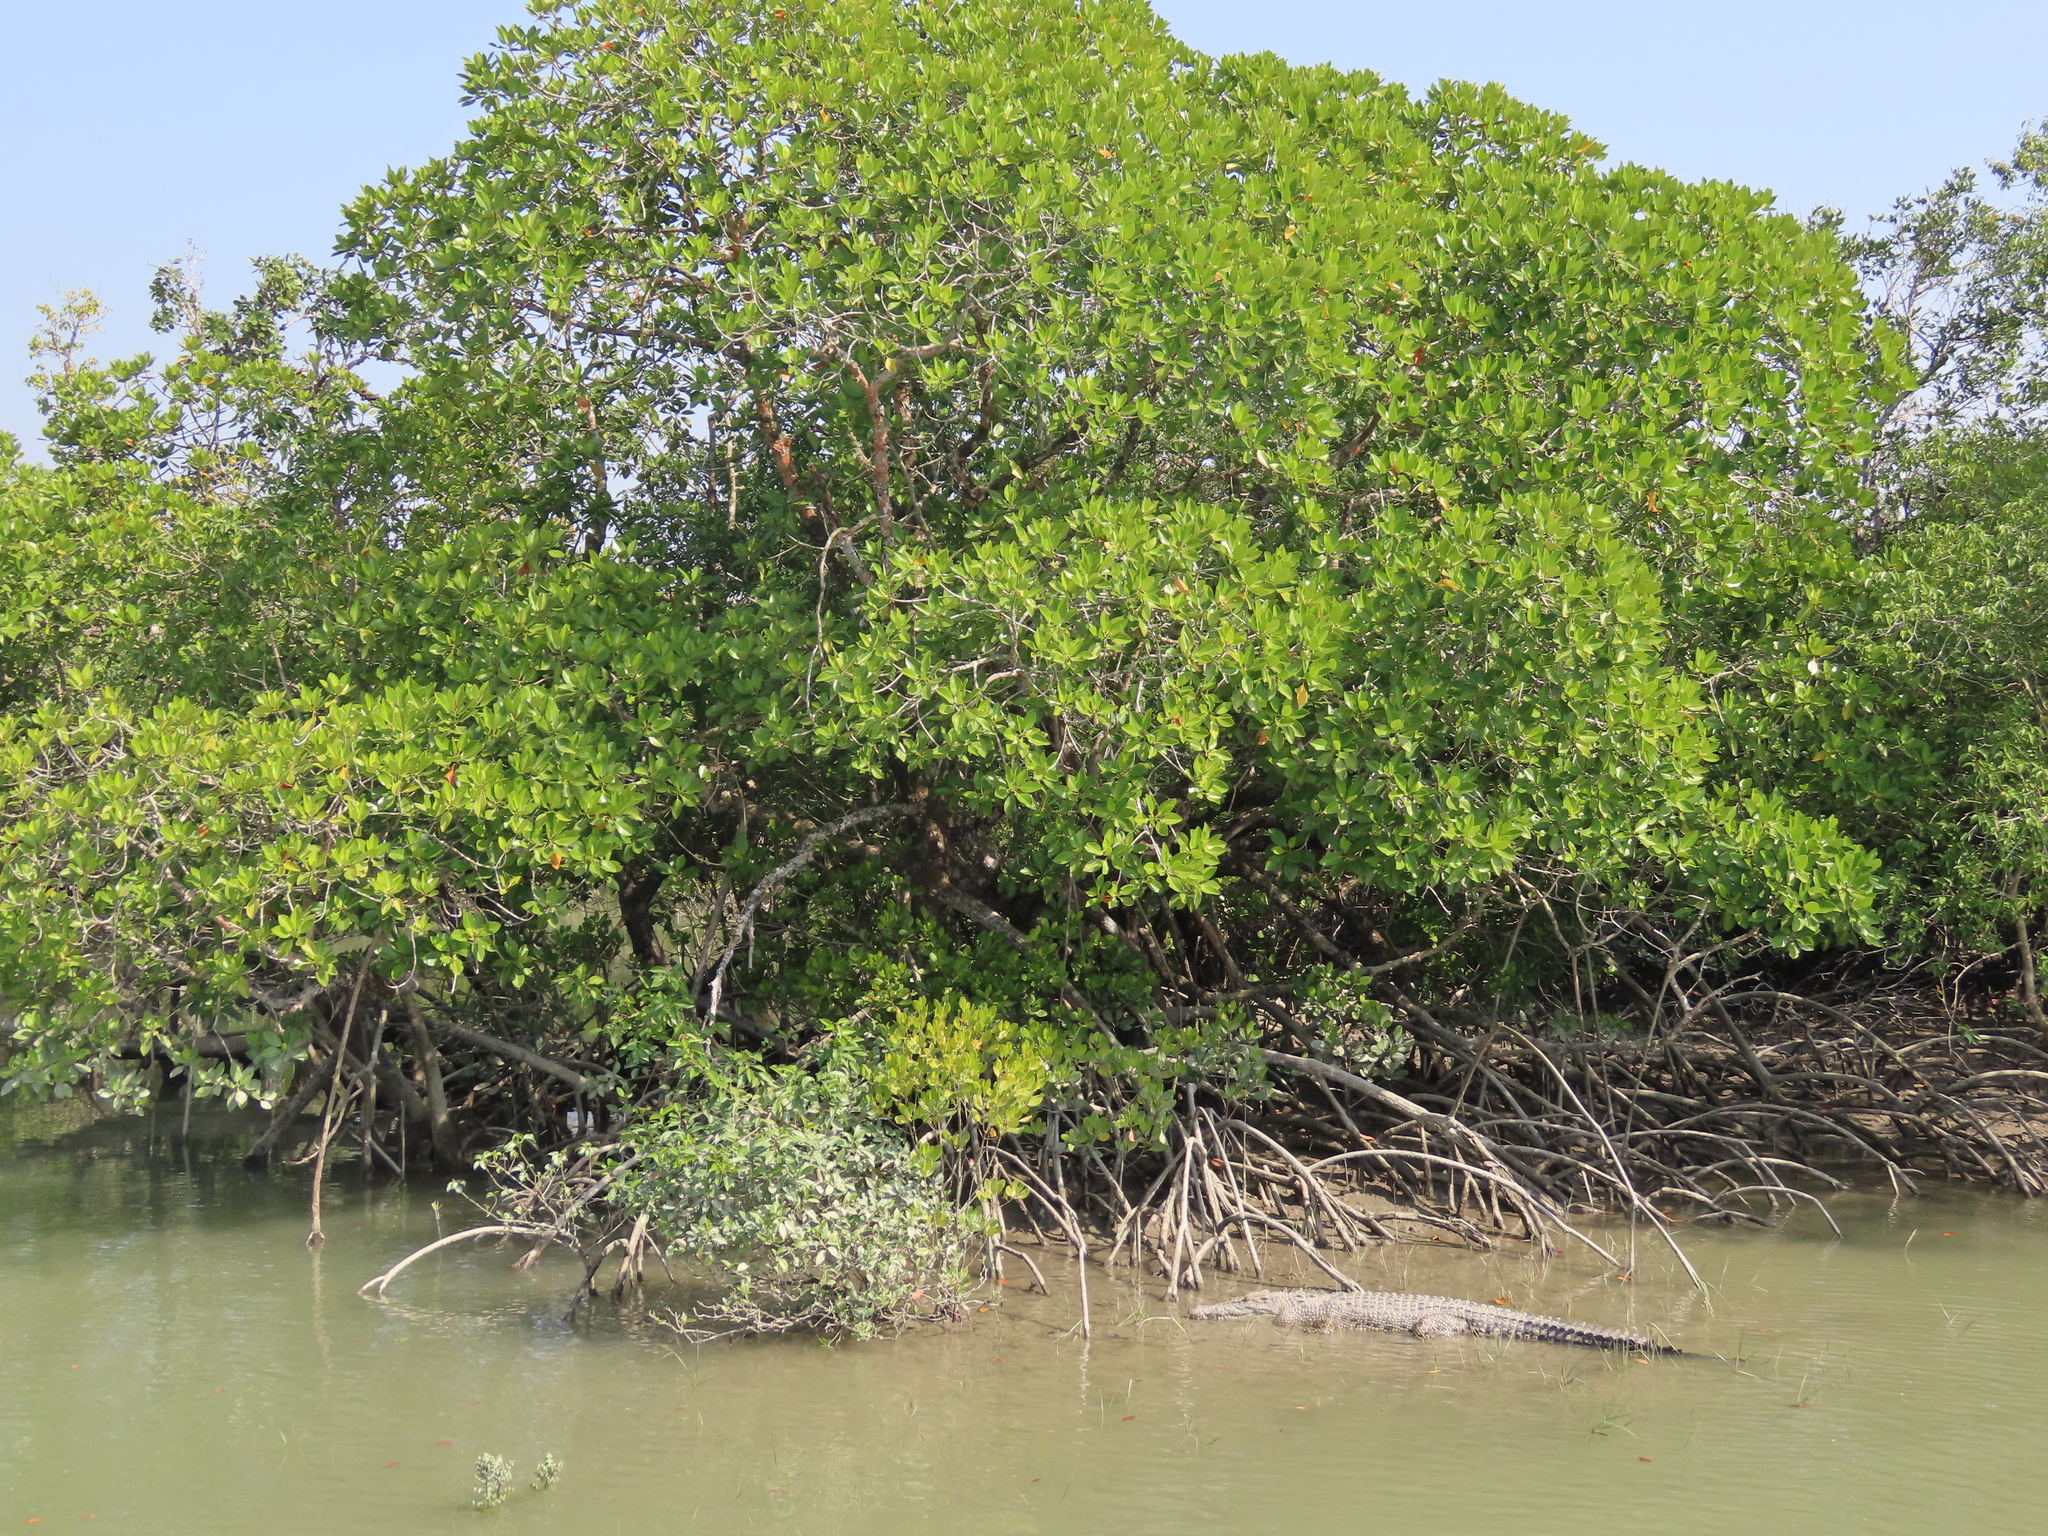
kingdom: Animalia
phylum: Chordata
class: Crocodylia
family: Crocodylidae
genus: Crocodylus
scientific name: Crocodylus porosus
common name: Saltwater crocodile
